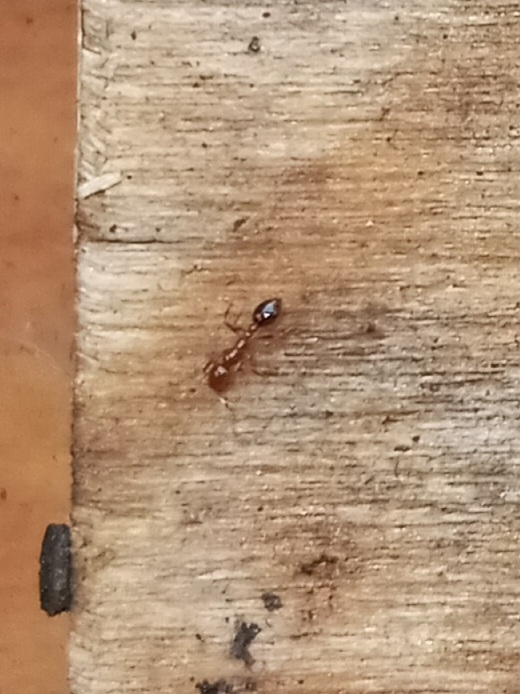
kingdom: Animalia
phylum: Arthropoda
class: Insecta
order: Hymenoptera
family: Formicidae
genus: Solenopsis
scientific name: Solenopsis invicta
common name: Red imported fire ant
